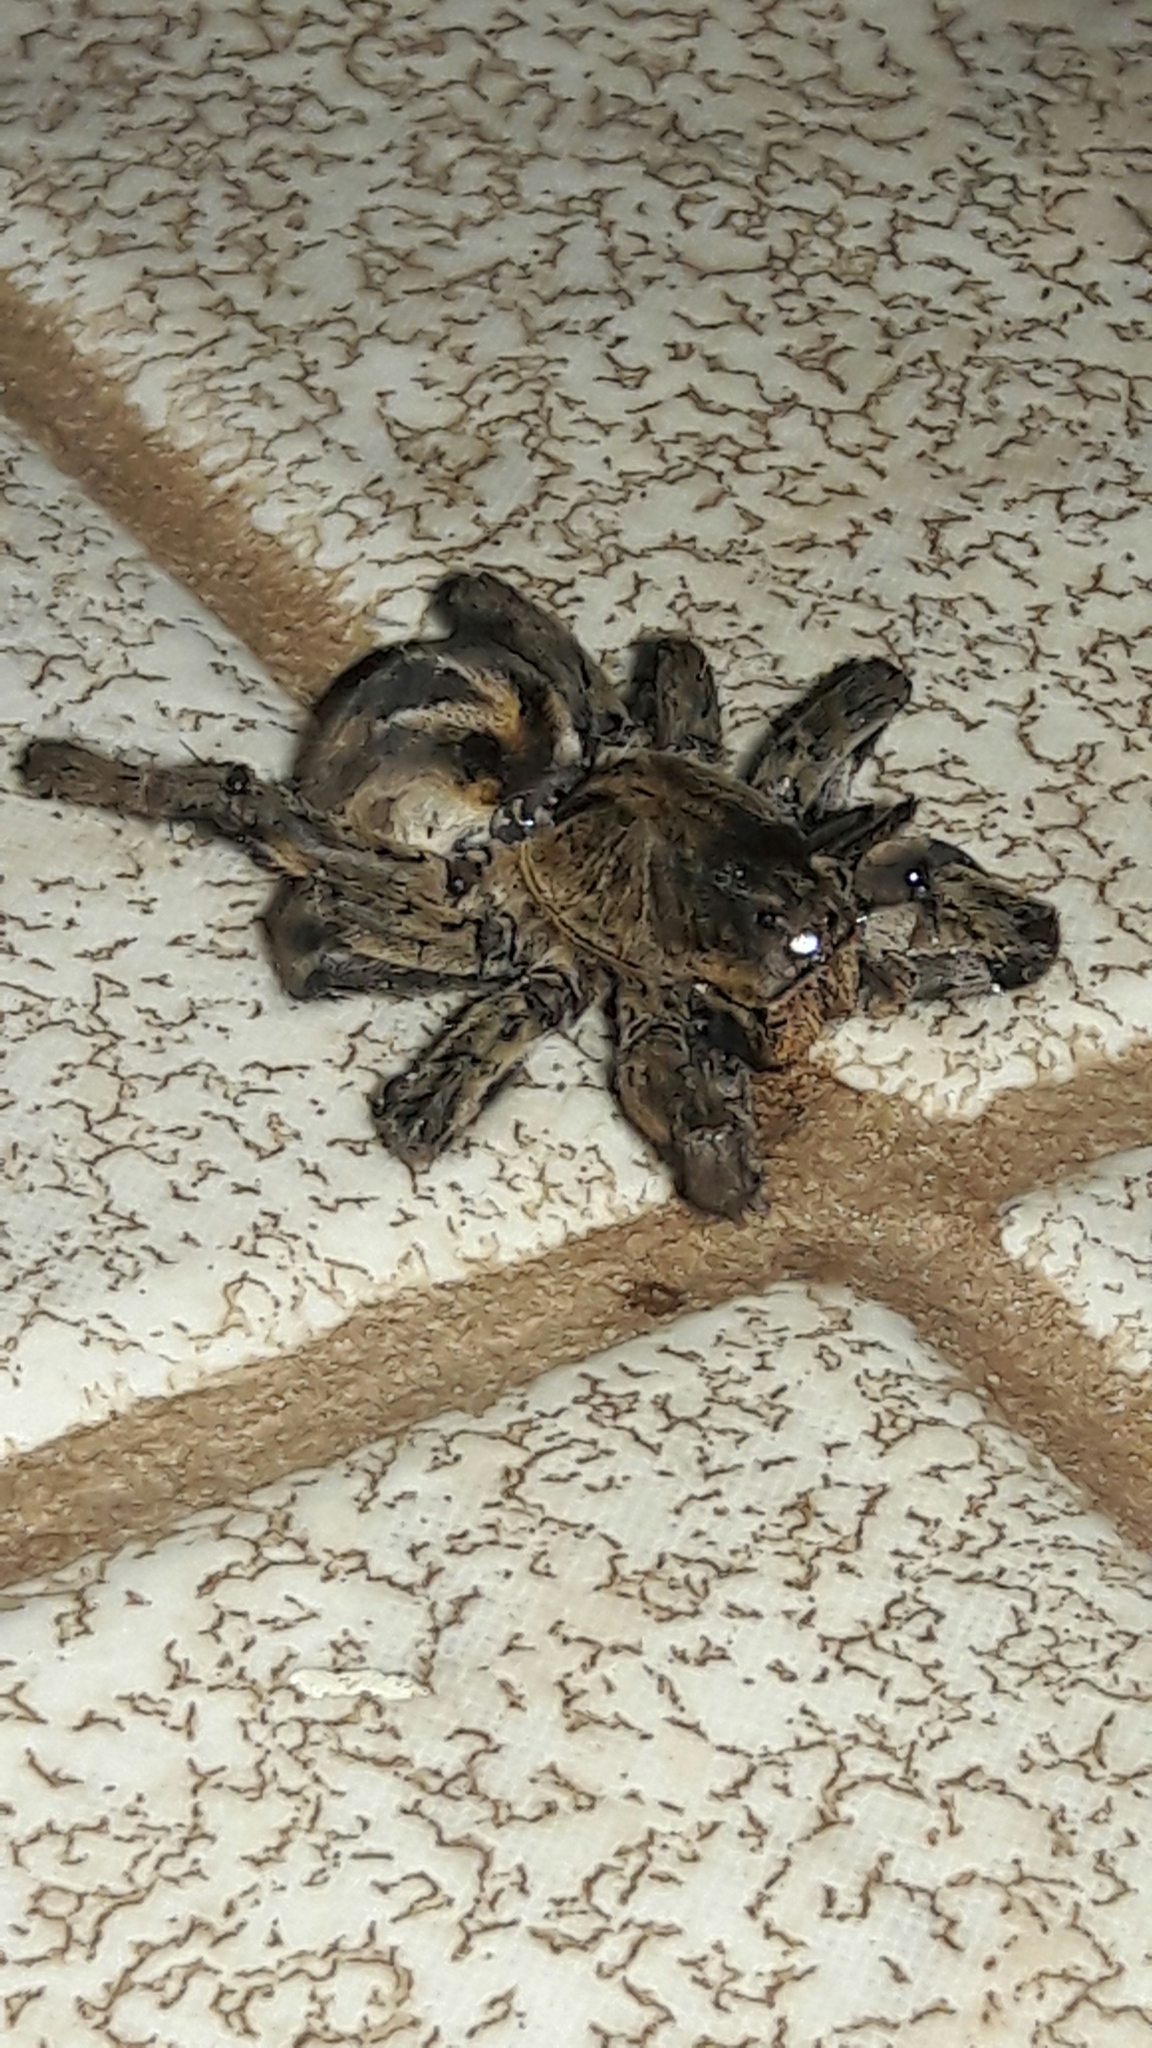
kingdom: Animalia
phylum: Arthropoda
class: Arachnida
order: Araneae
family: Lycosidae
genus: Lycosa
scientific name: Lycosa erythrognatha
